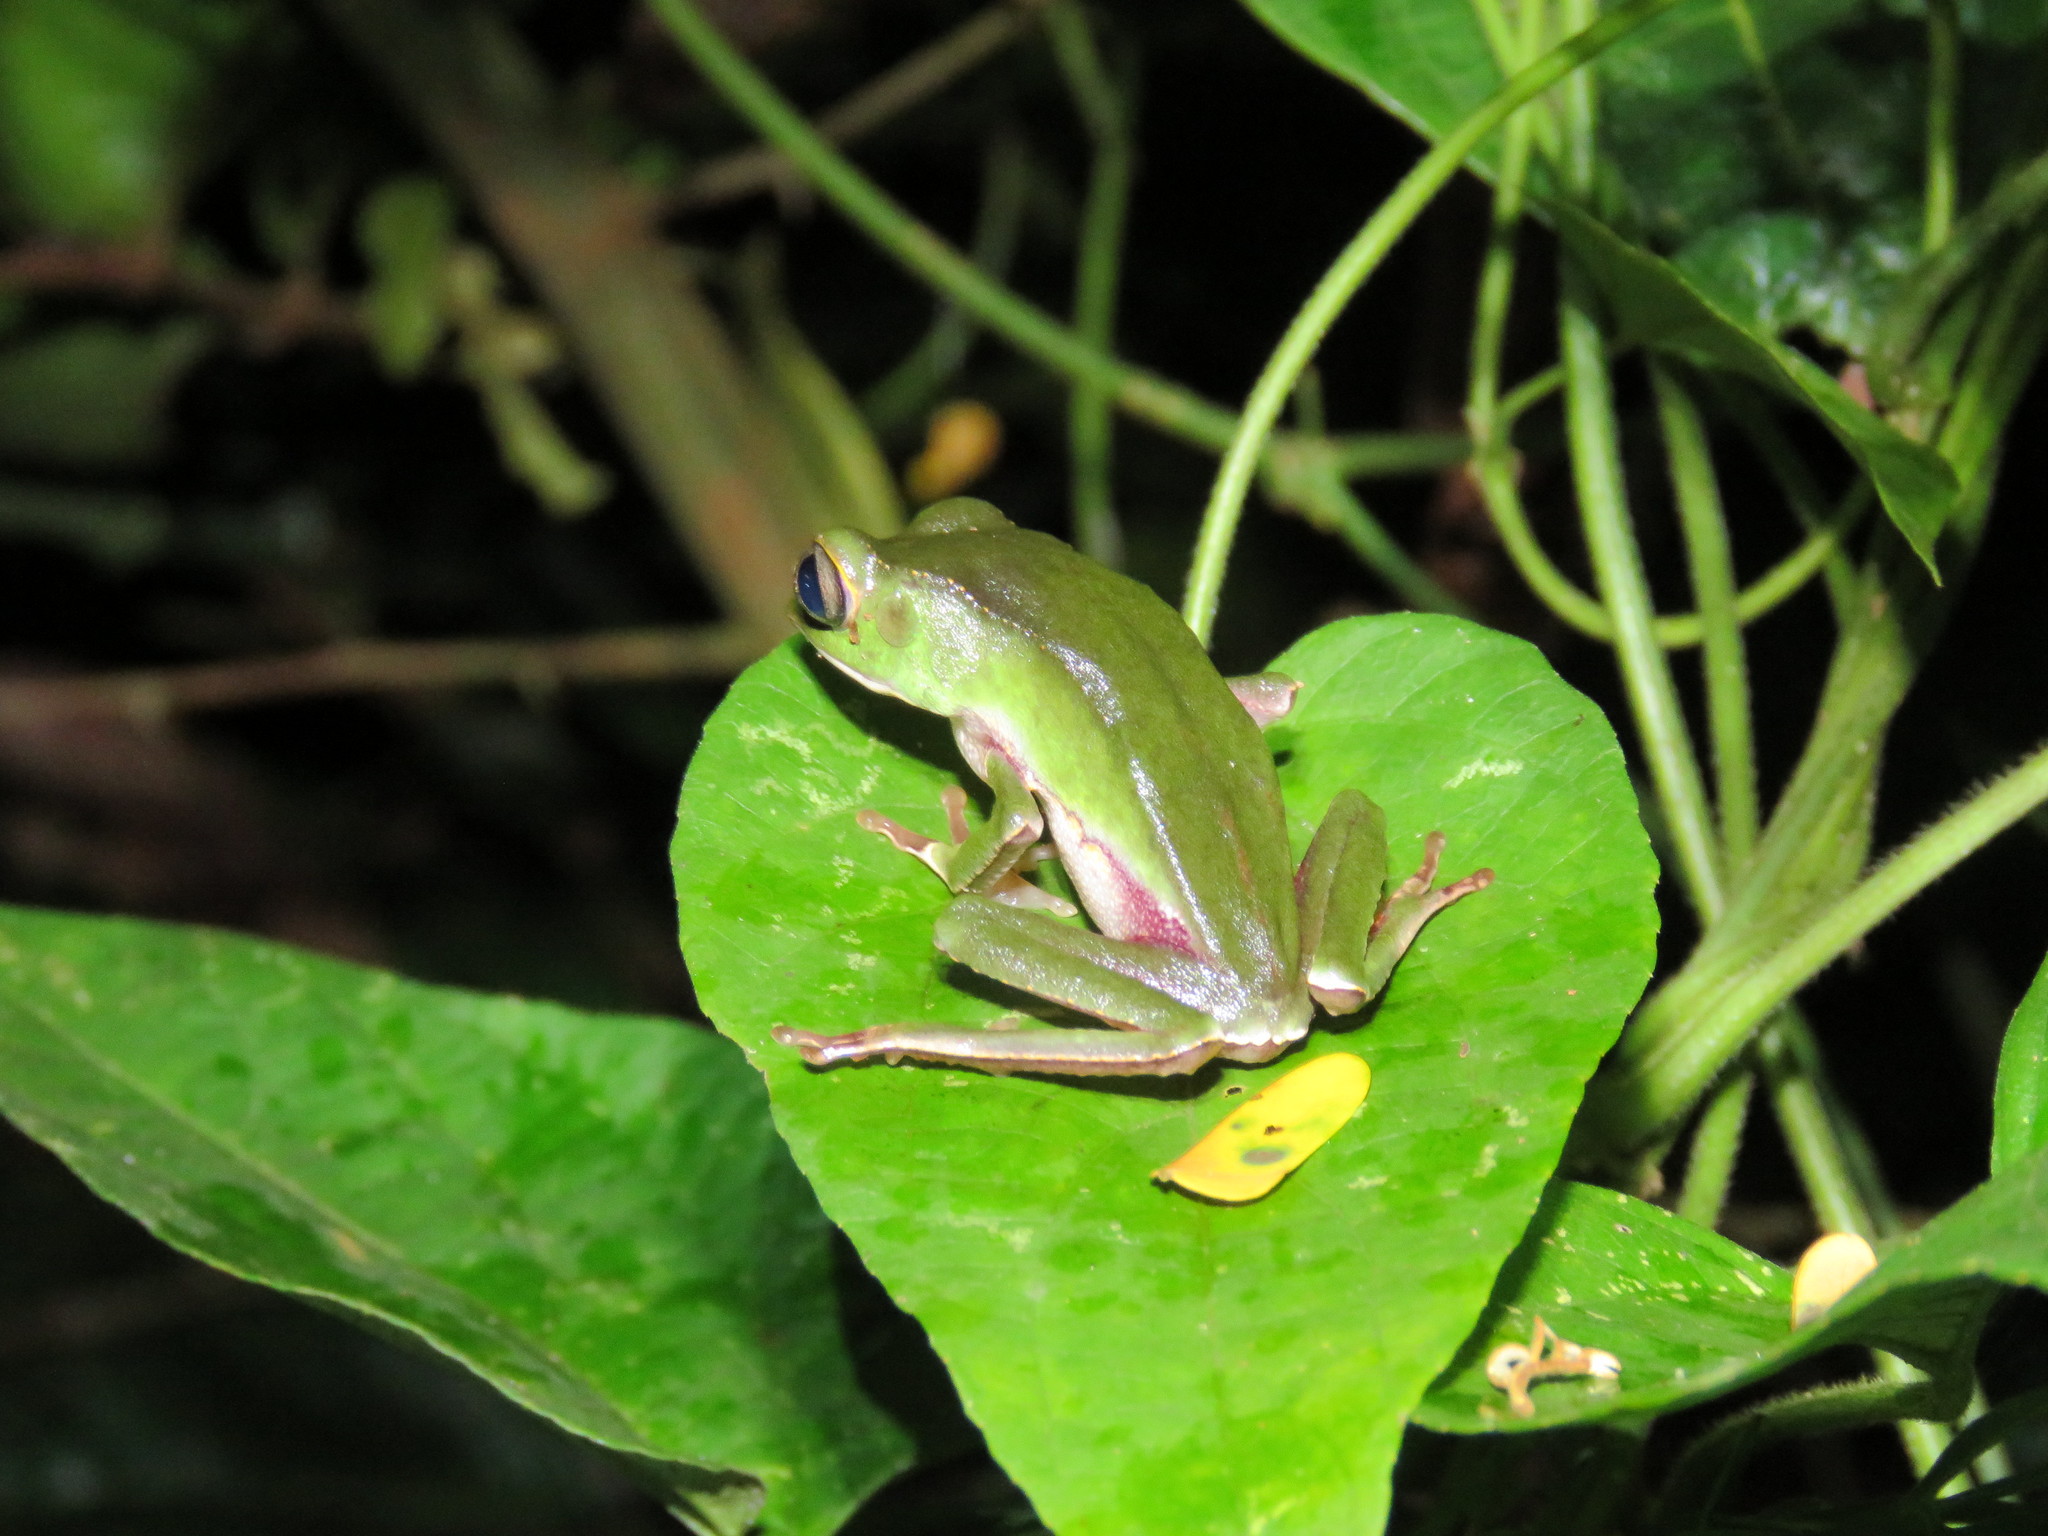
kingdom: Animalia
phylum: Chordata
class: Amphibia
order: Anura
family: Phyllomedusidae
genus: Phyllomedusa
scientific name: Phyllomedusa vaillantii
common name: White-lined leaf frog
